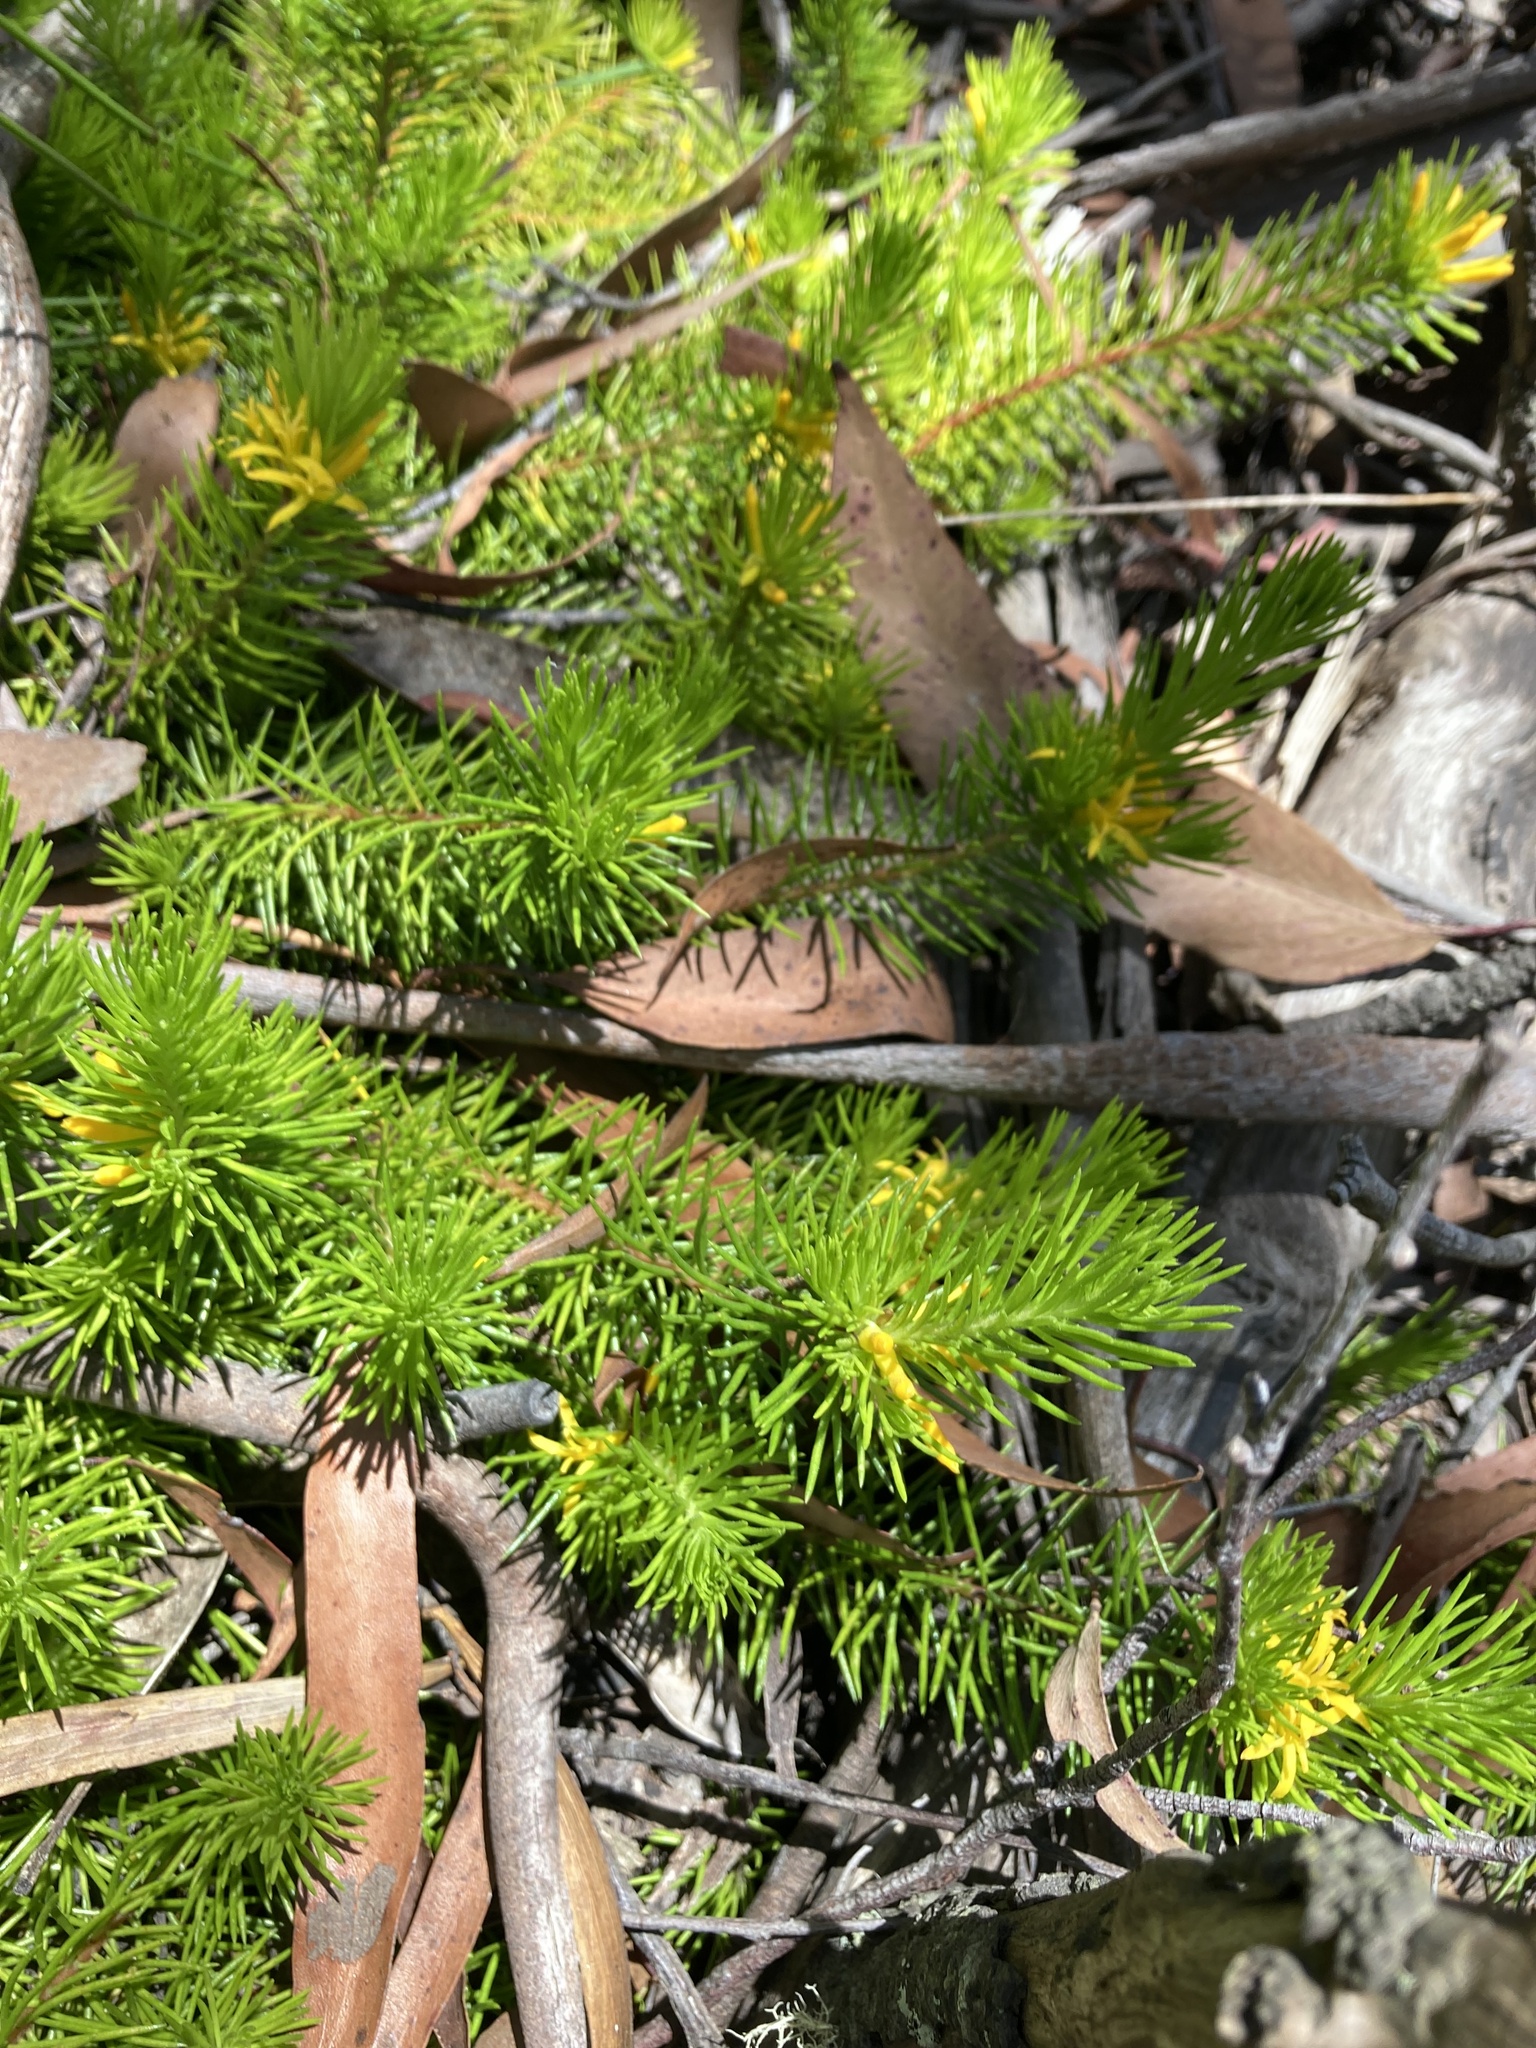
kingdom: Plantae
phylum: Tracheophyta
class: Magnoliopsida
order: Proteales
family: Proteaceae
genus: Persoonia
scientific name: Persoonia chamaepitys
